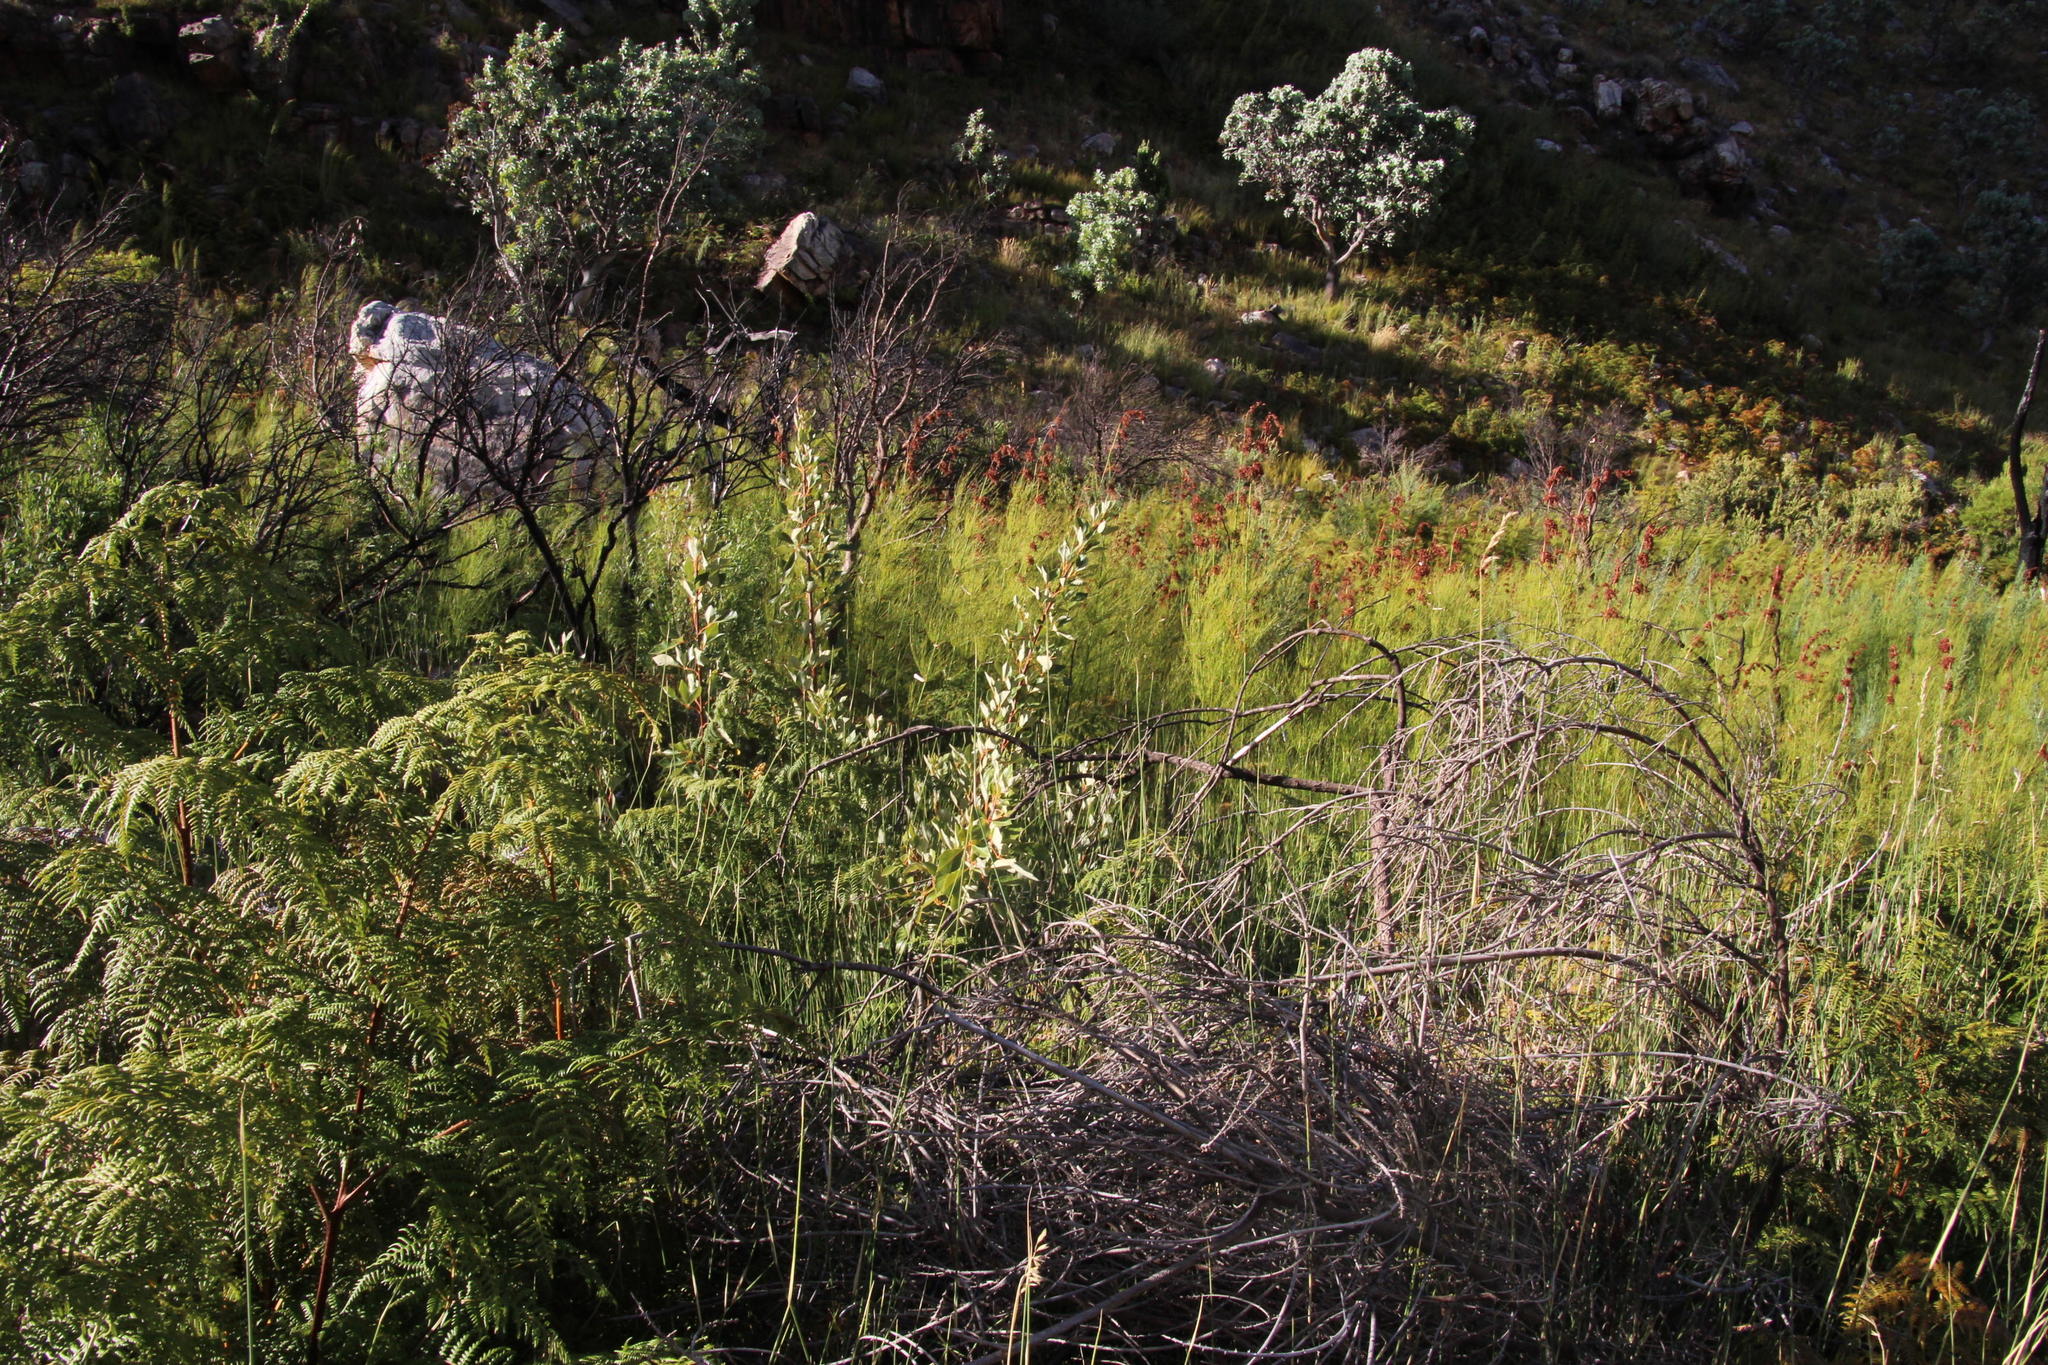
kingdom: Plantae
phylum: Tracheophyta
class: Liliopsida
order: Poales
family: Restionaceae
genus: Elegia
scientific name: Elegia capensis
